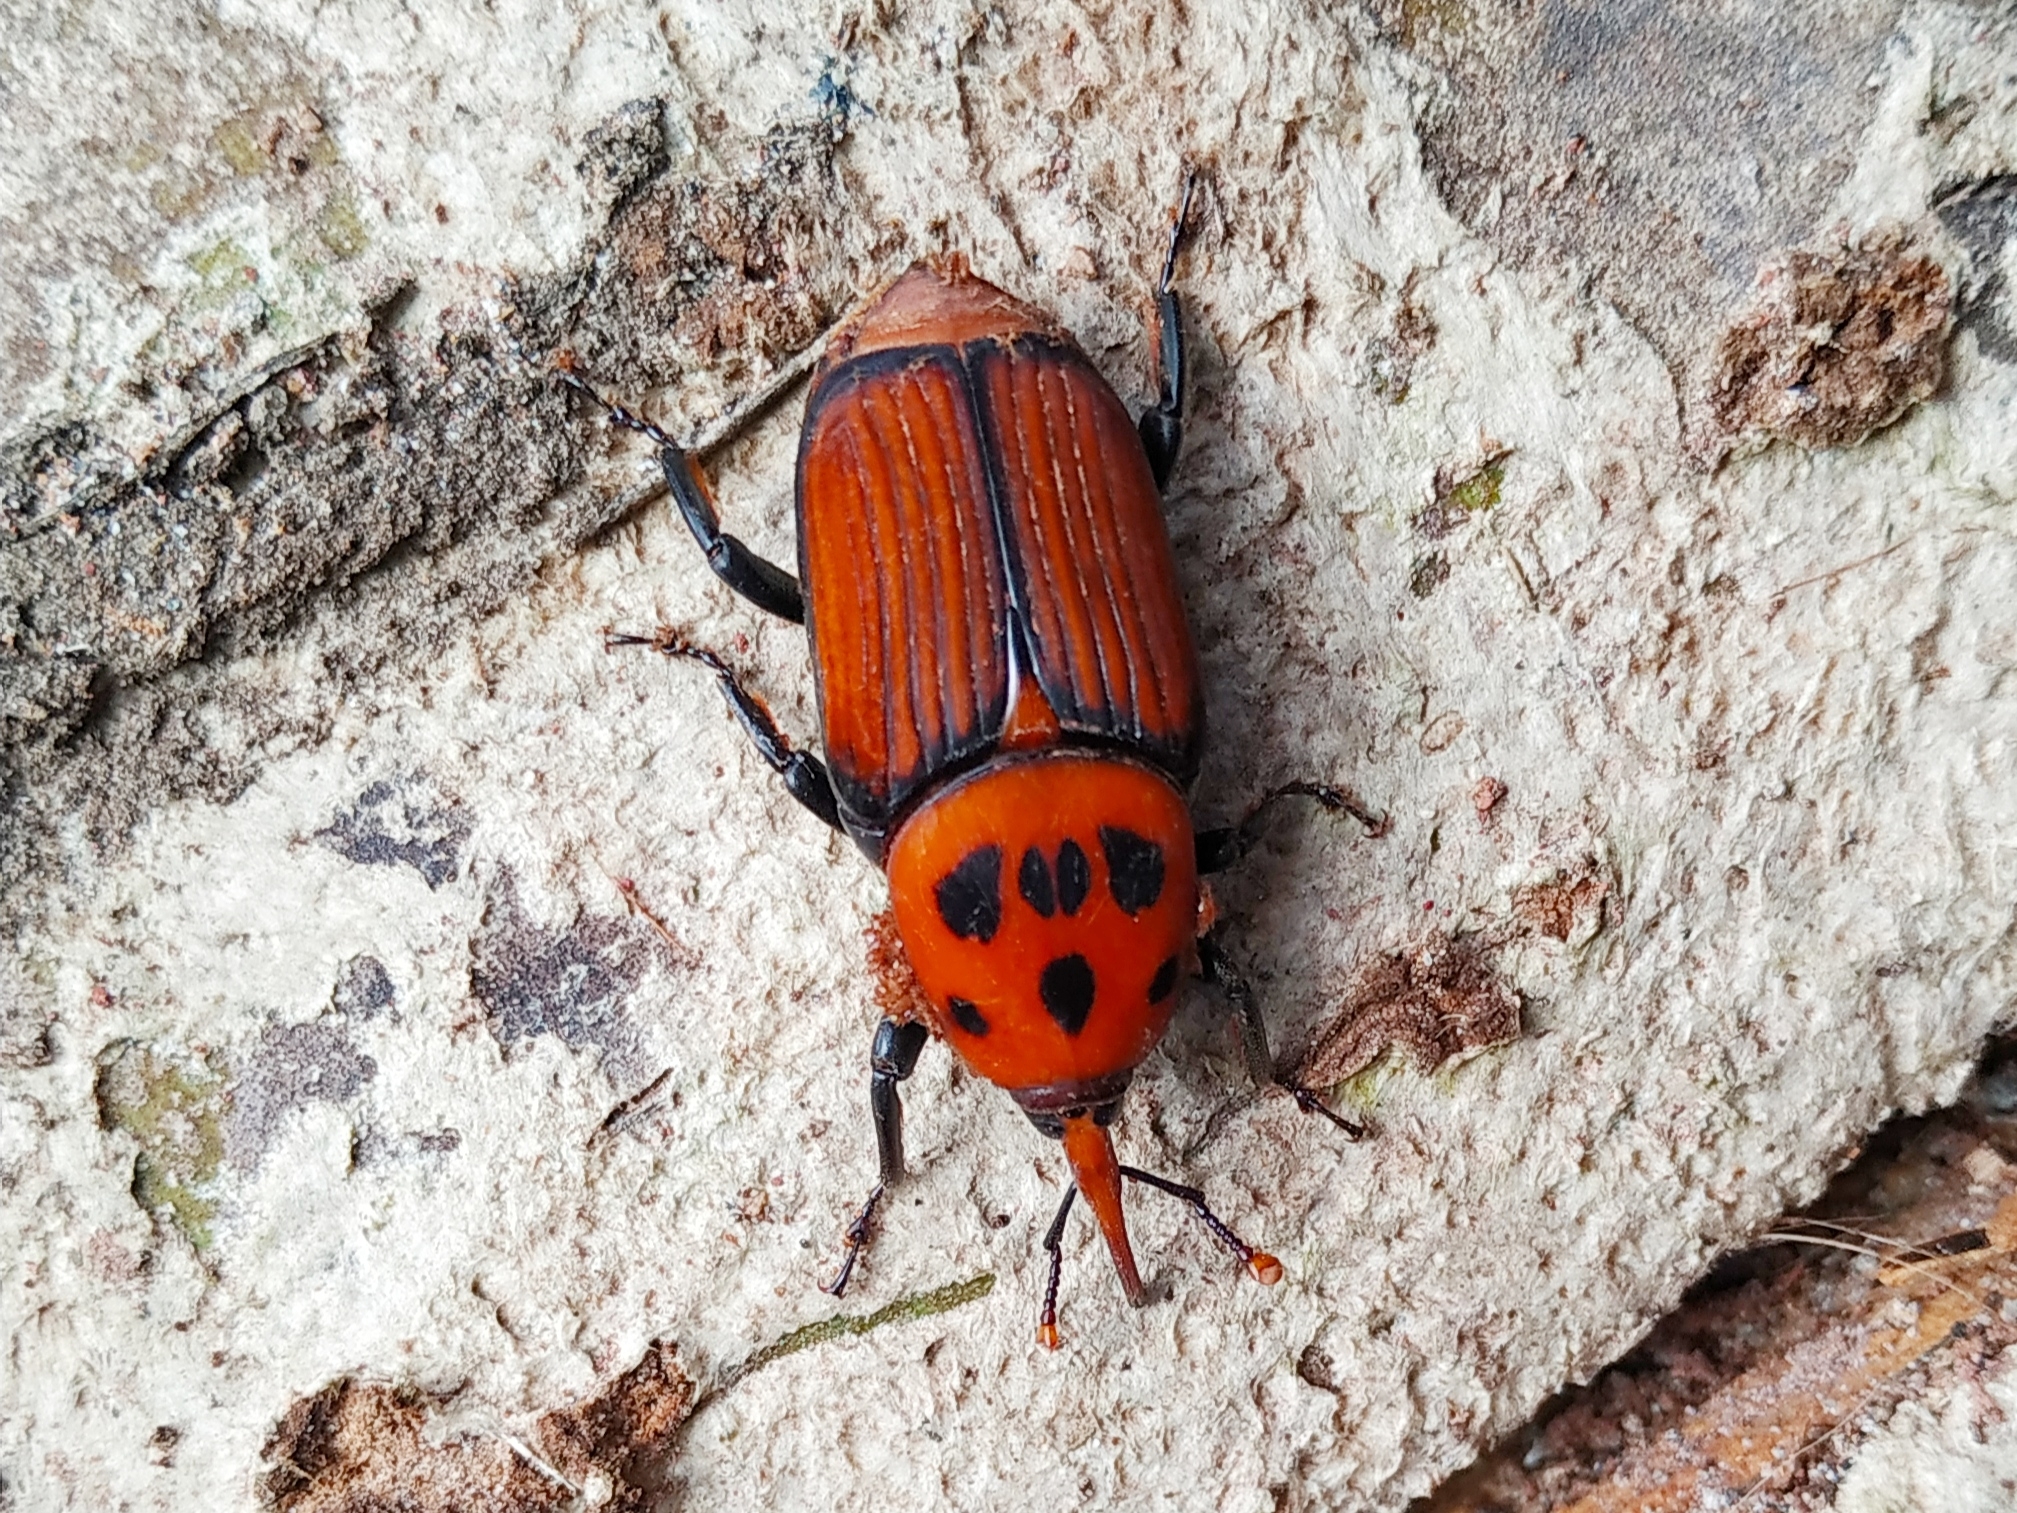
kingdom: Animalia
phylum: Arthropoda
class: Insecta
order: Coleoptera
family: Dryophthoridae
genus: Rhynchophorus
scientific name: Rhynchophorus ferrugineus
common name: Red palm weevil
